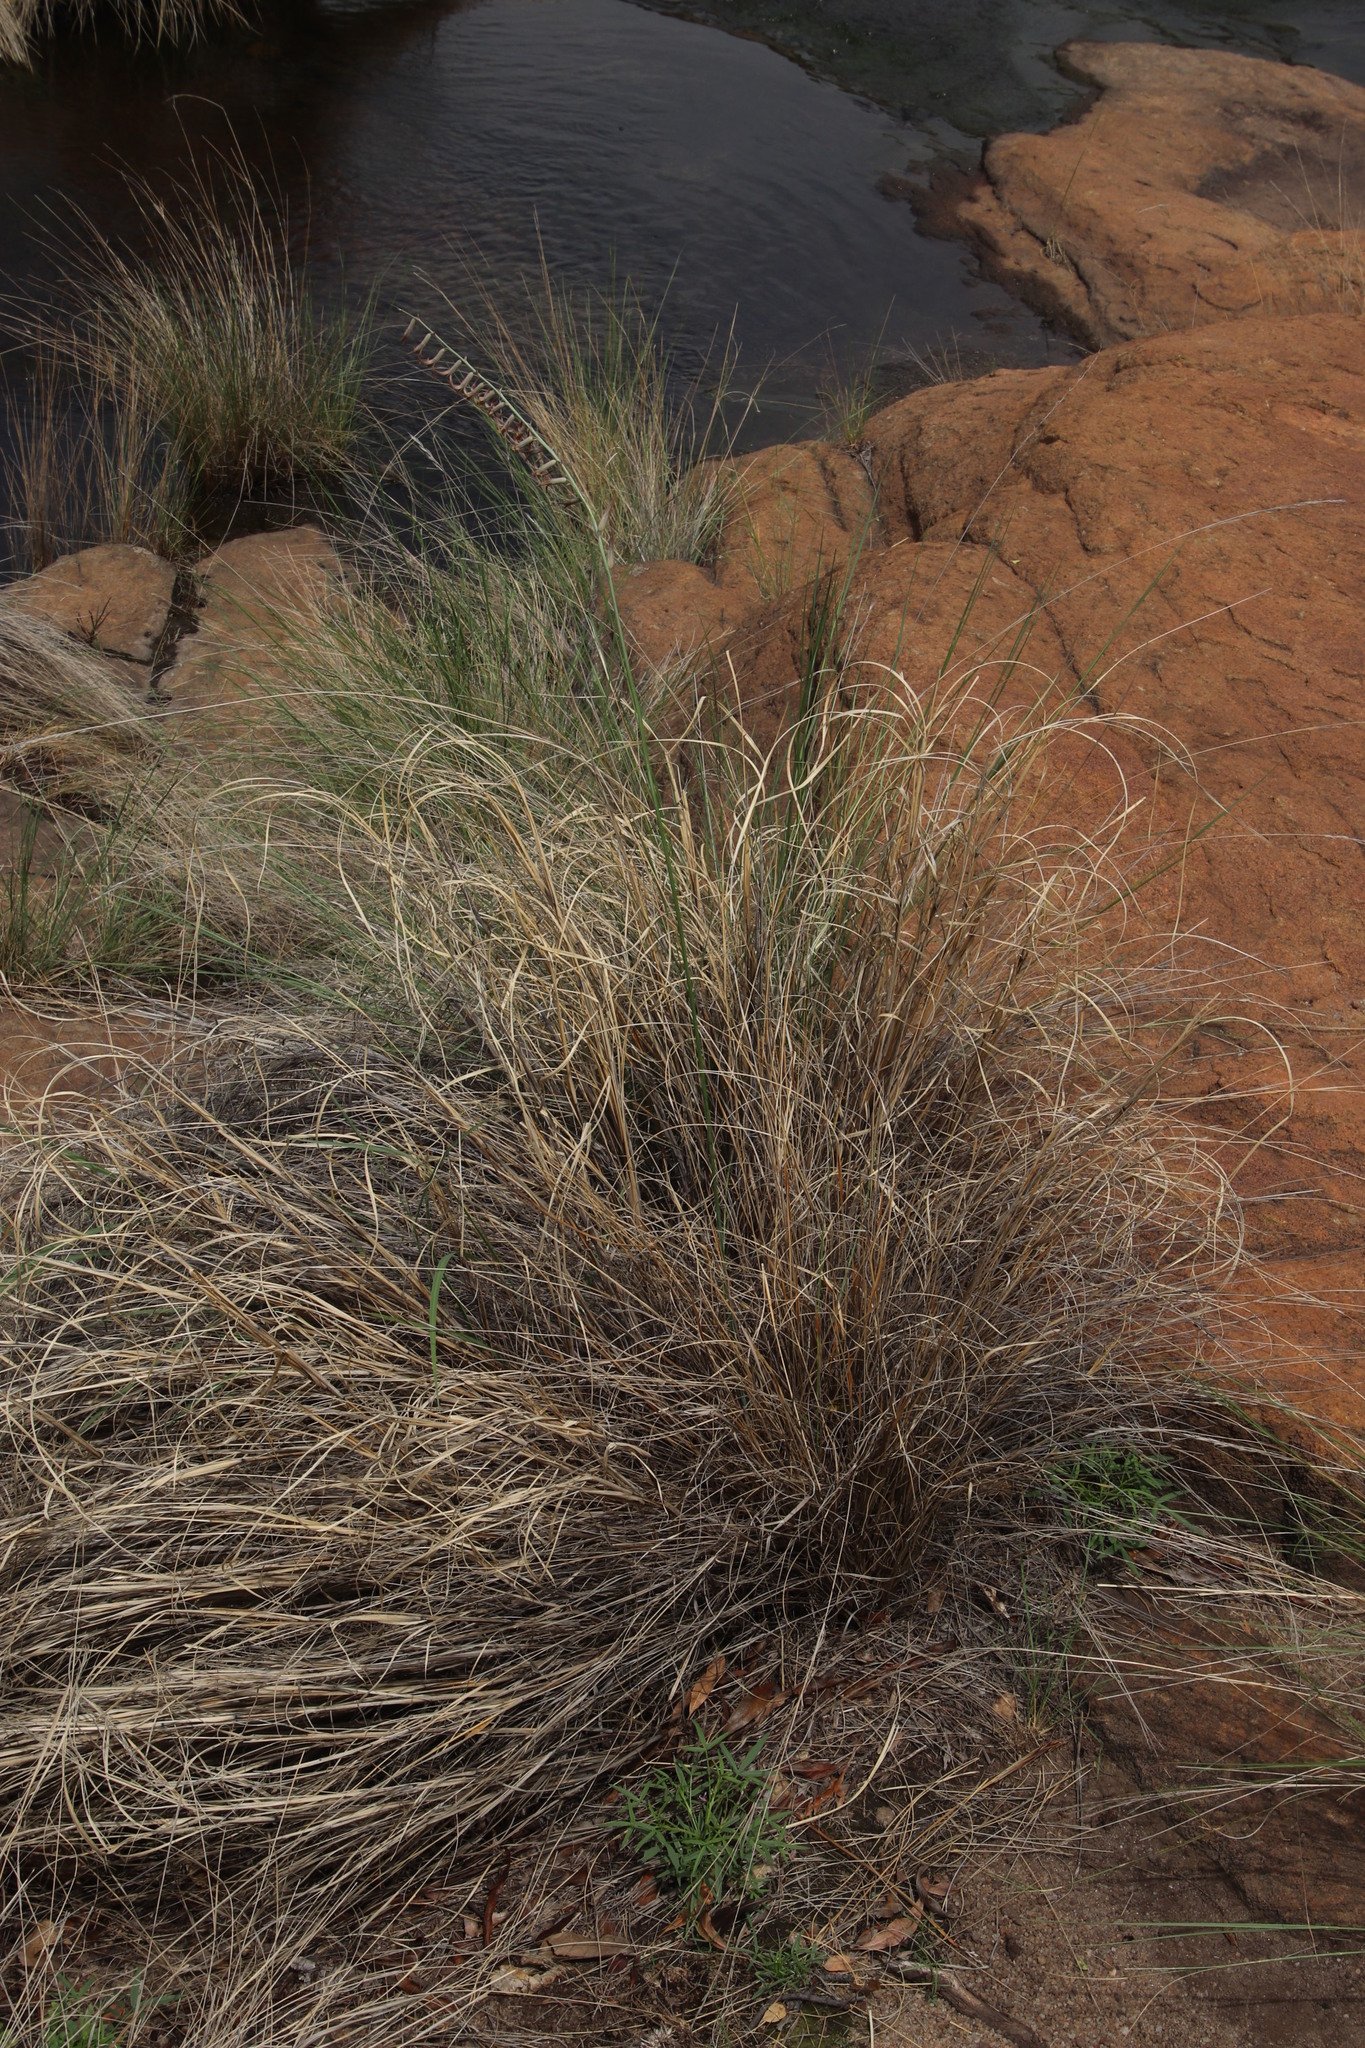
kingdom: Plantae
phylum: Tracheophyta
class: Liliopsida
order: Asparagales
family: Asparagaceae
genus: Dipcadi
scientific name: Dipcadi ciliare
